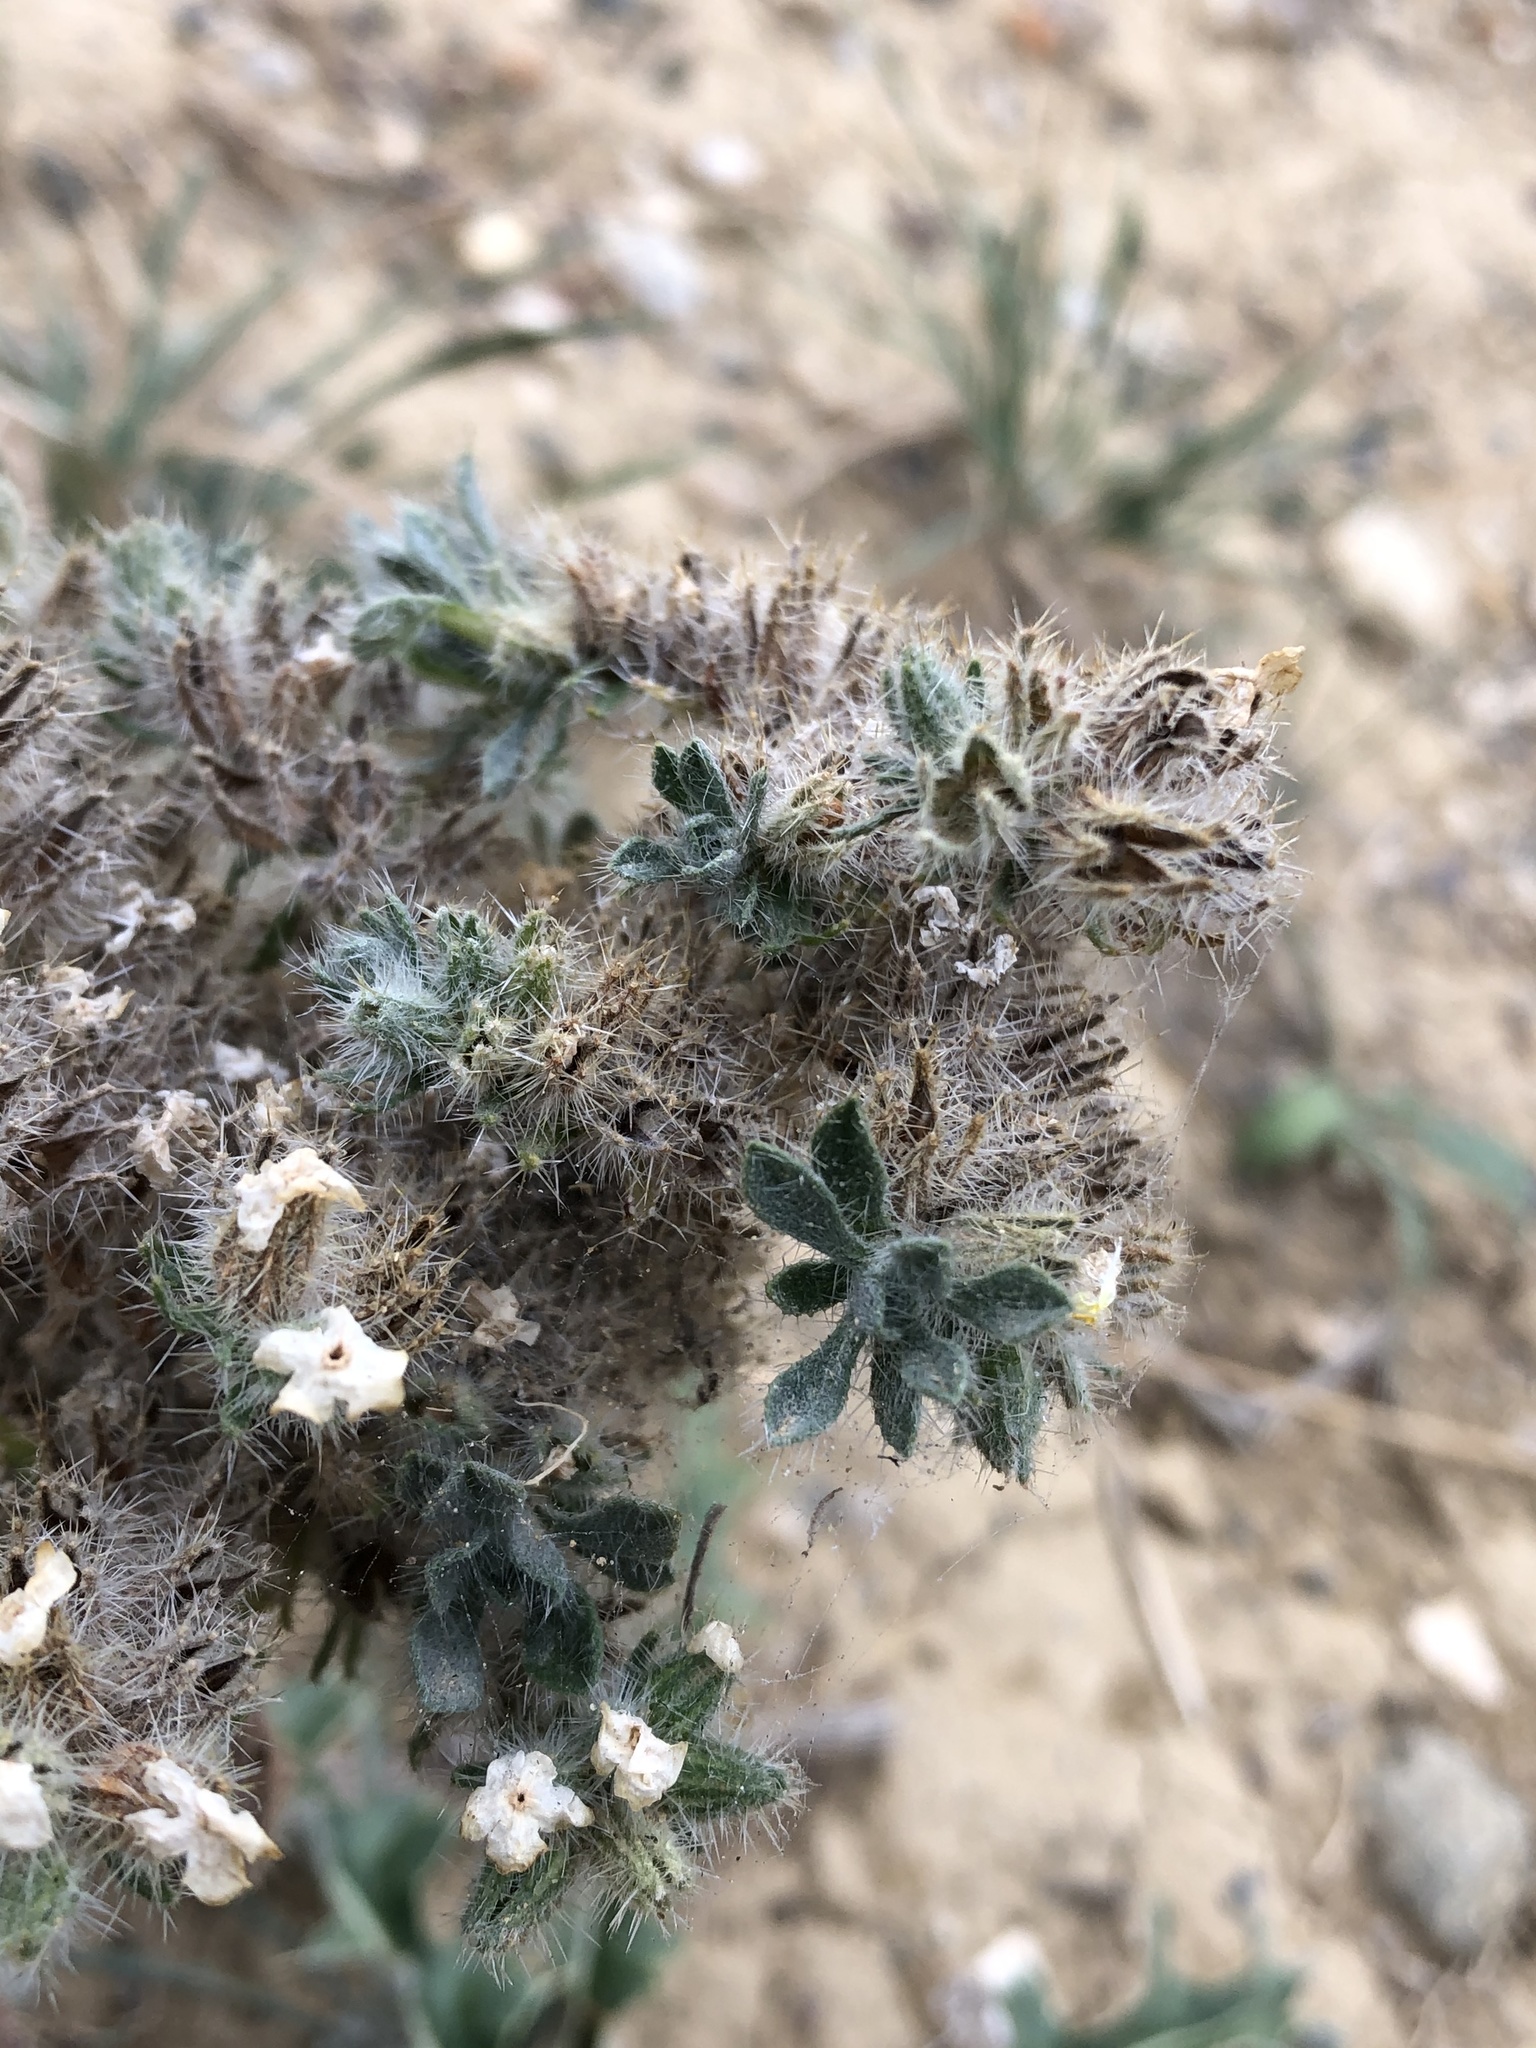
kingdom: Plantae
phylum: Tracheophyta
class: Magnoliopsida
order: Boraginales
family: Boraginaceae
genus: Oreocarya
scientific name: Oreocarya thyrsiflora
